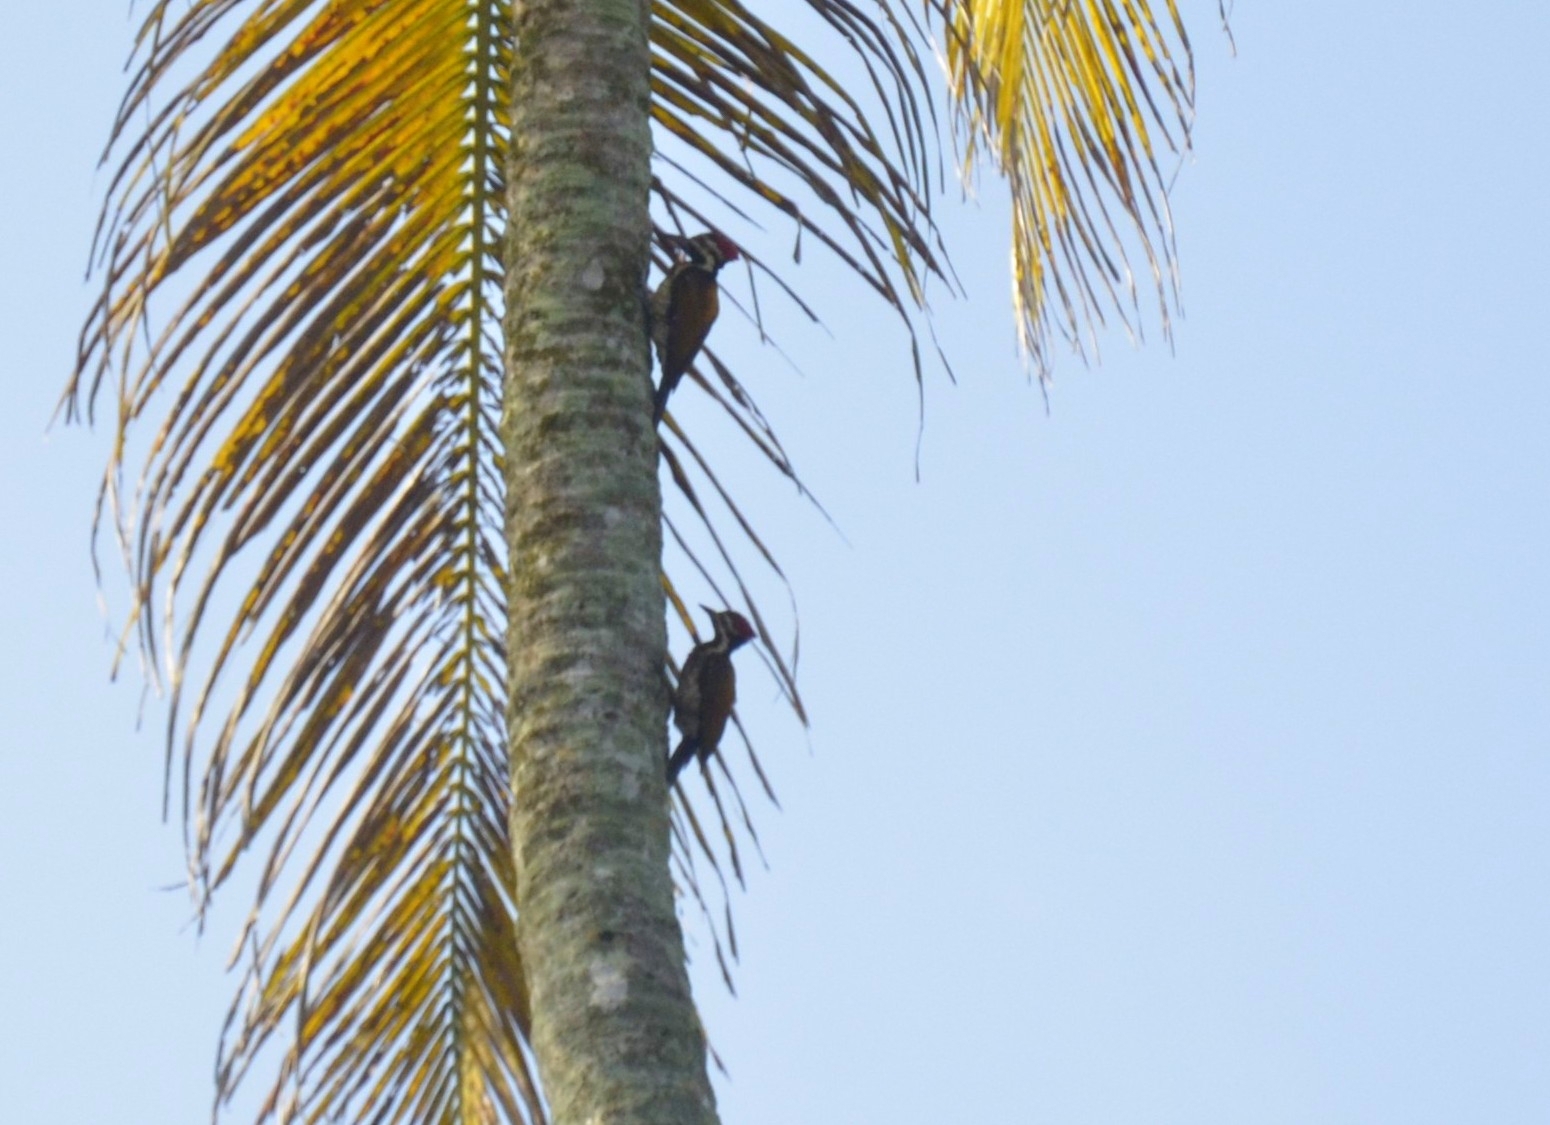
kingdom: Animalia
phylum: Chordata
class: Aves
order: Piciformes
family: Picidae
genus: Dinopium
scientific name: Dinopium benghalense
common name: Black-rumped flameback
